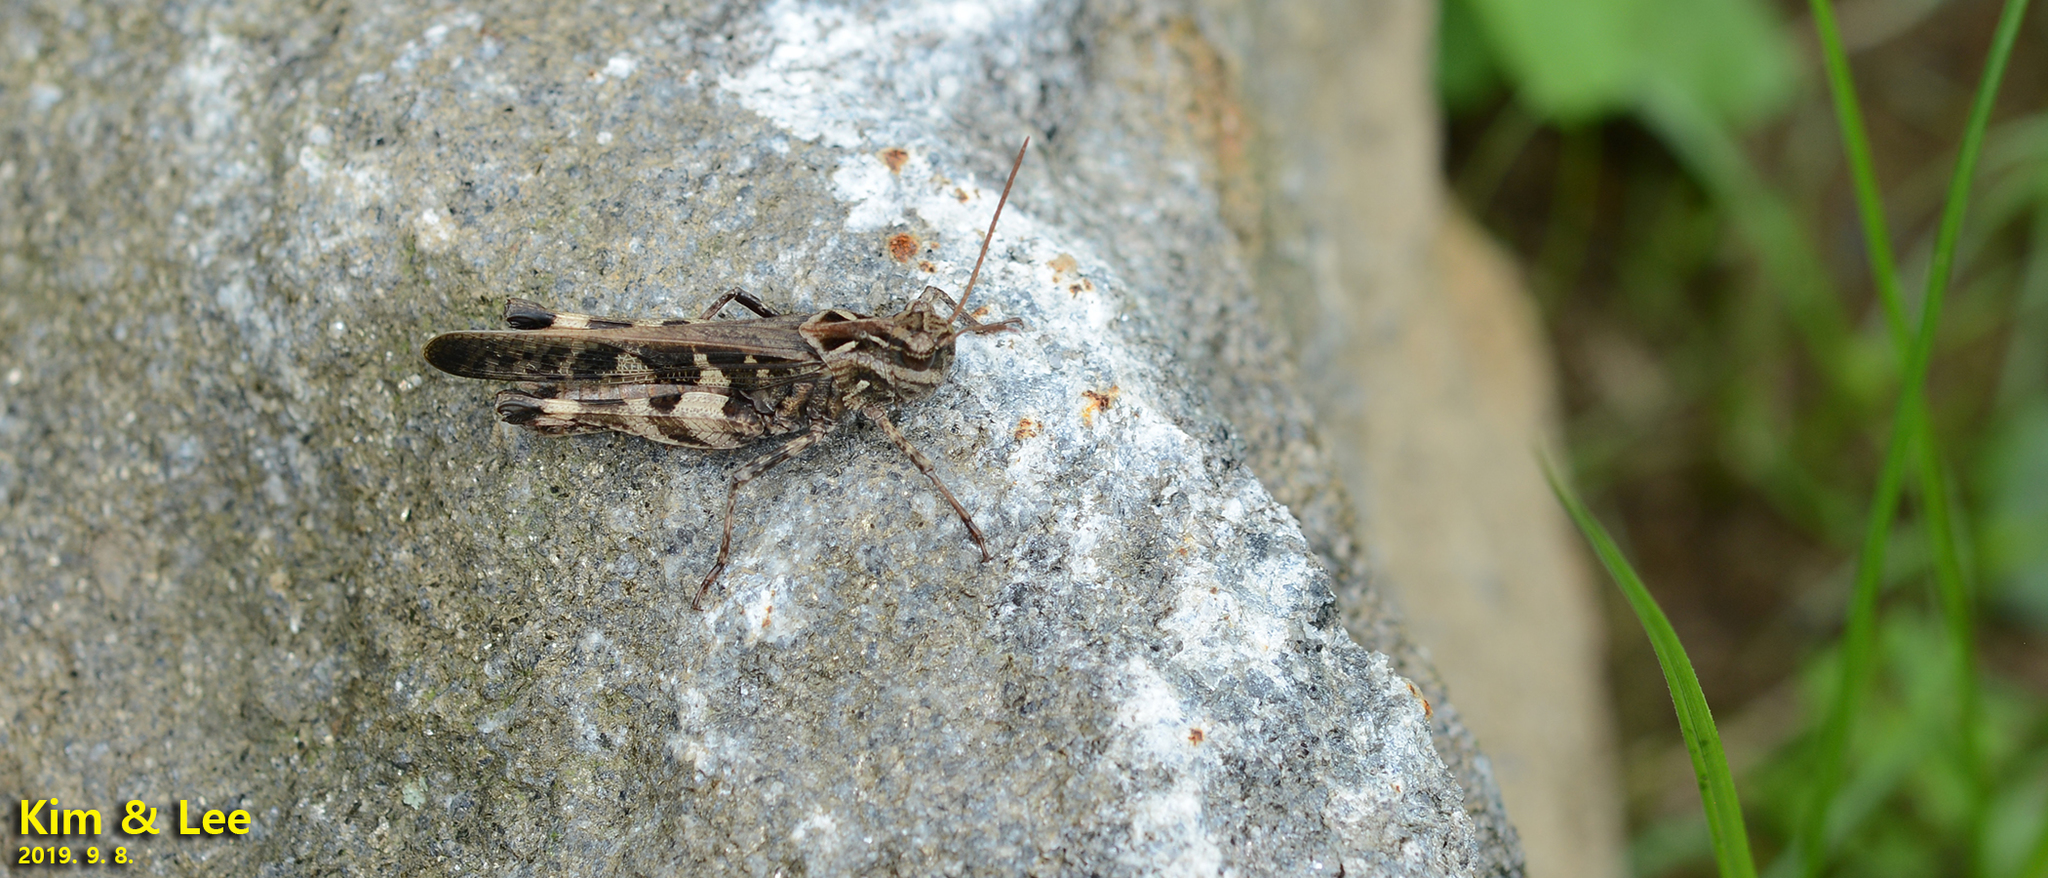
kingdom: Animalia
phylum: Arthropoda
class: Insecta
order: Orthoptera
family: Acrididae
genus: Oedaleus
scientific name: Oedaleus infernalis
